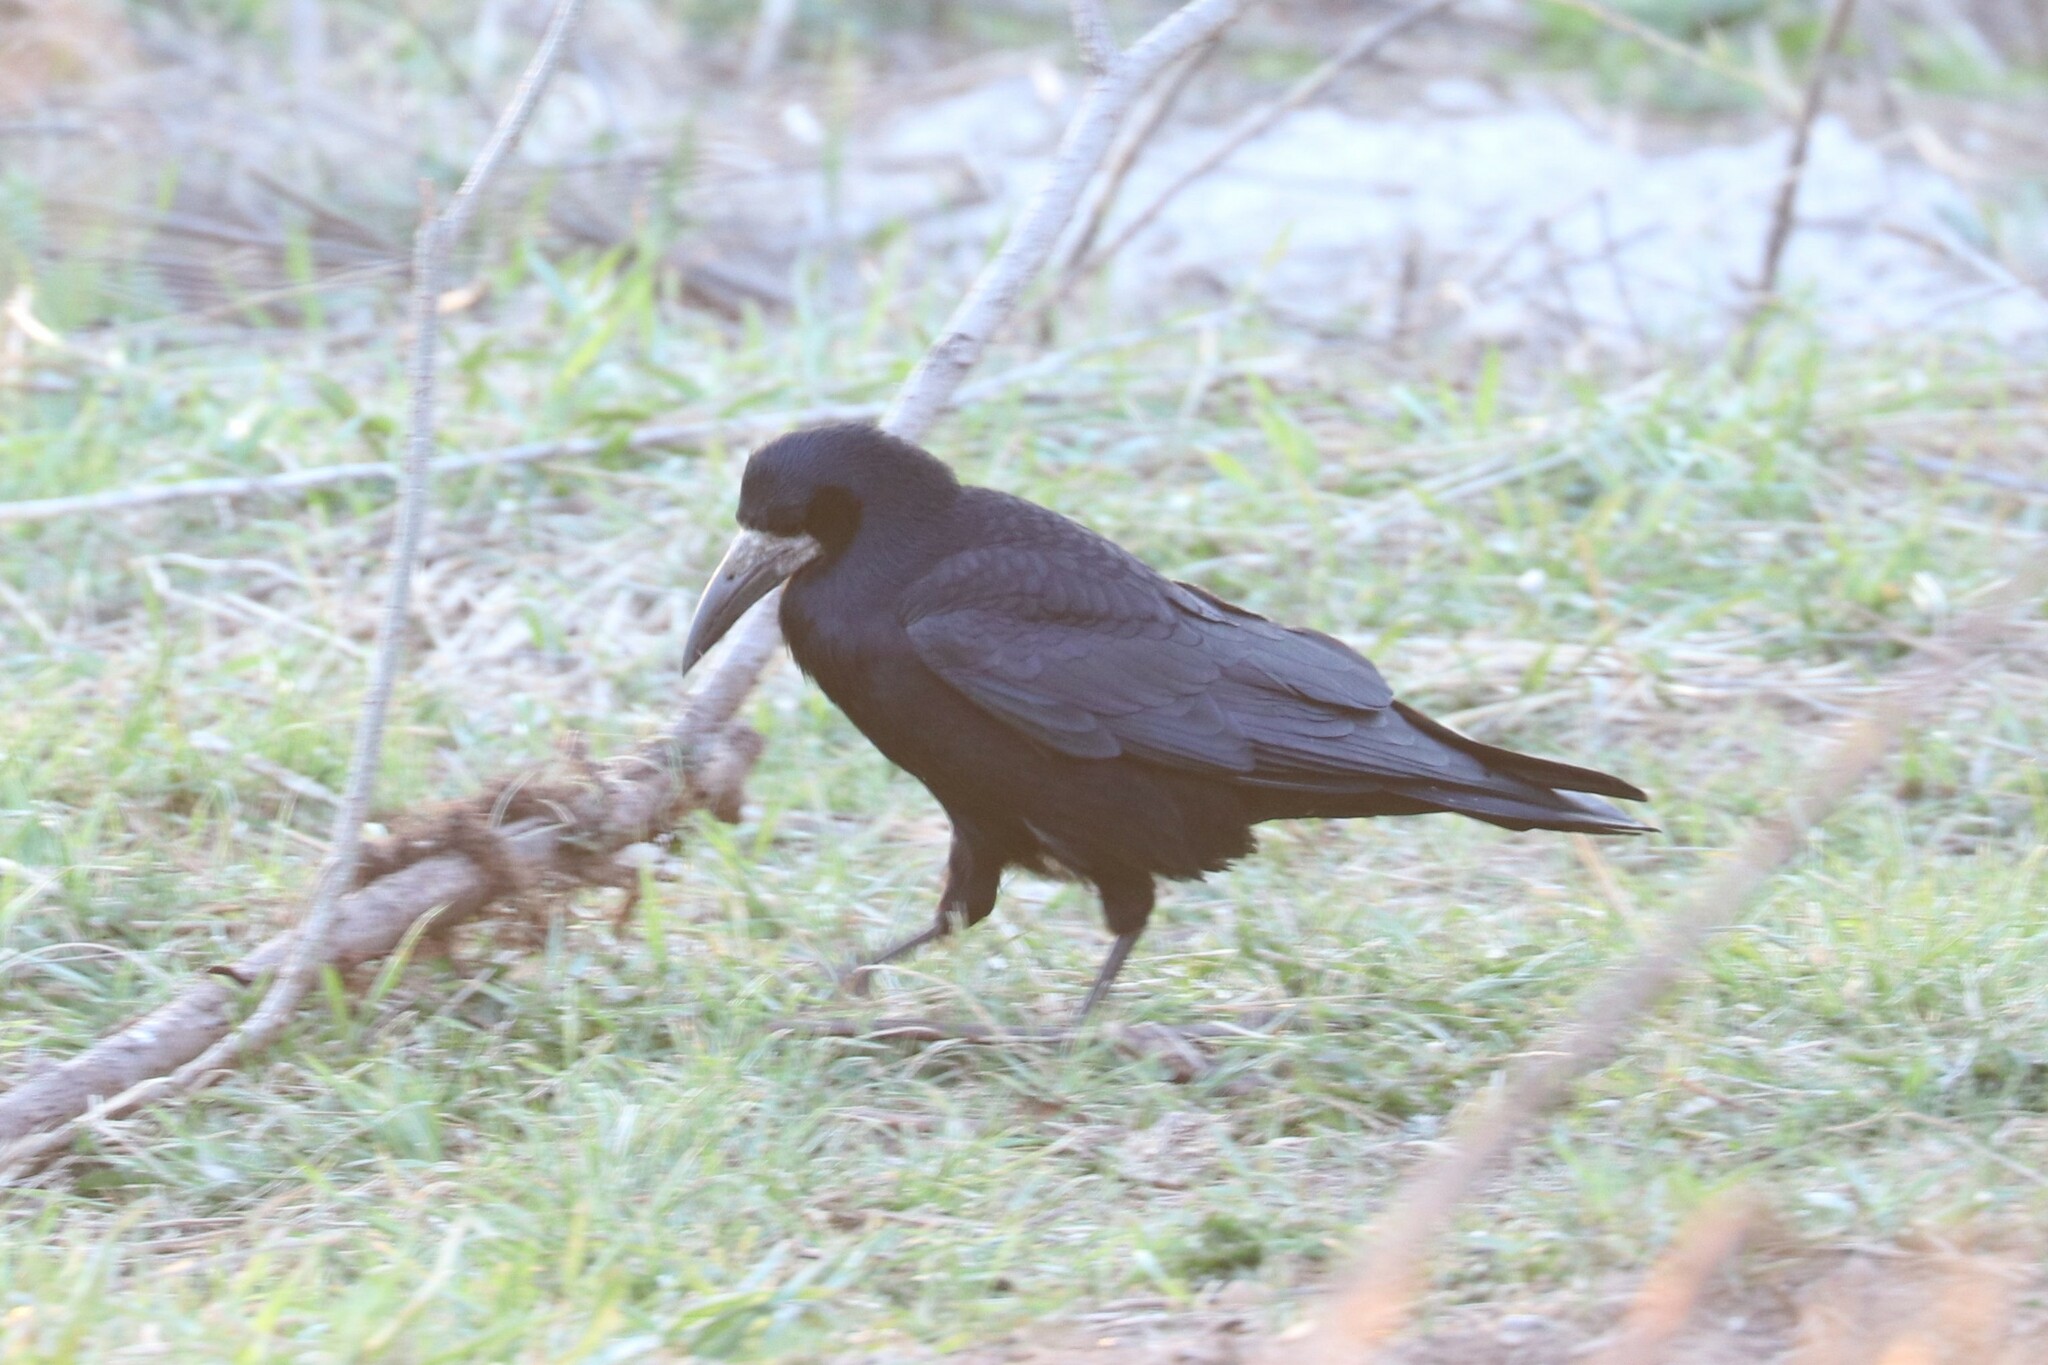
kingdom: Animalia
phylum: Chordata
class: Aves
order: Passeriformes
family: Corvidae
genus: Corvus
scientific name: Corvus frugilegus
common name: Rook
